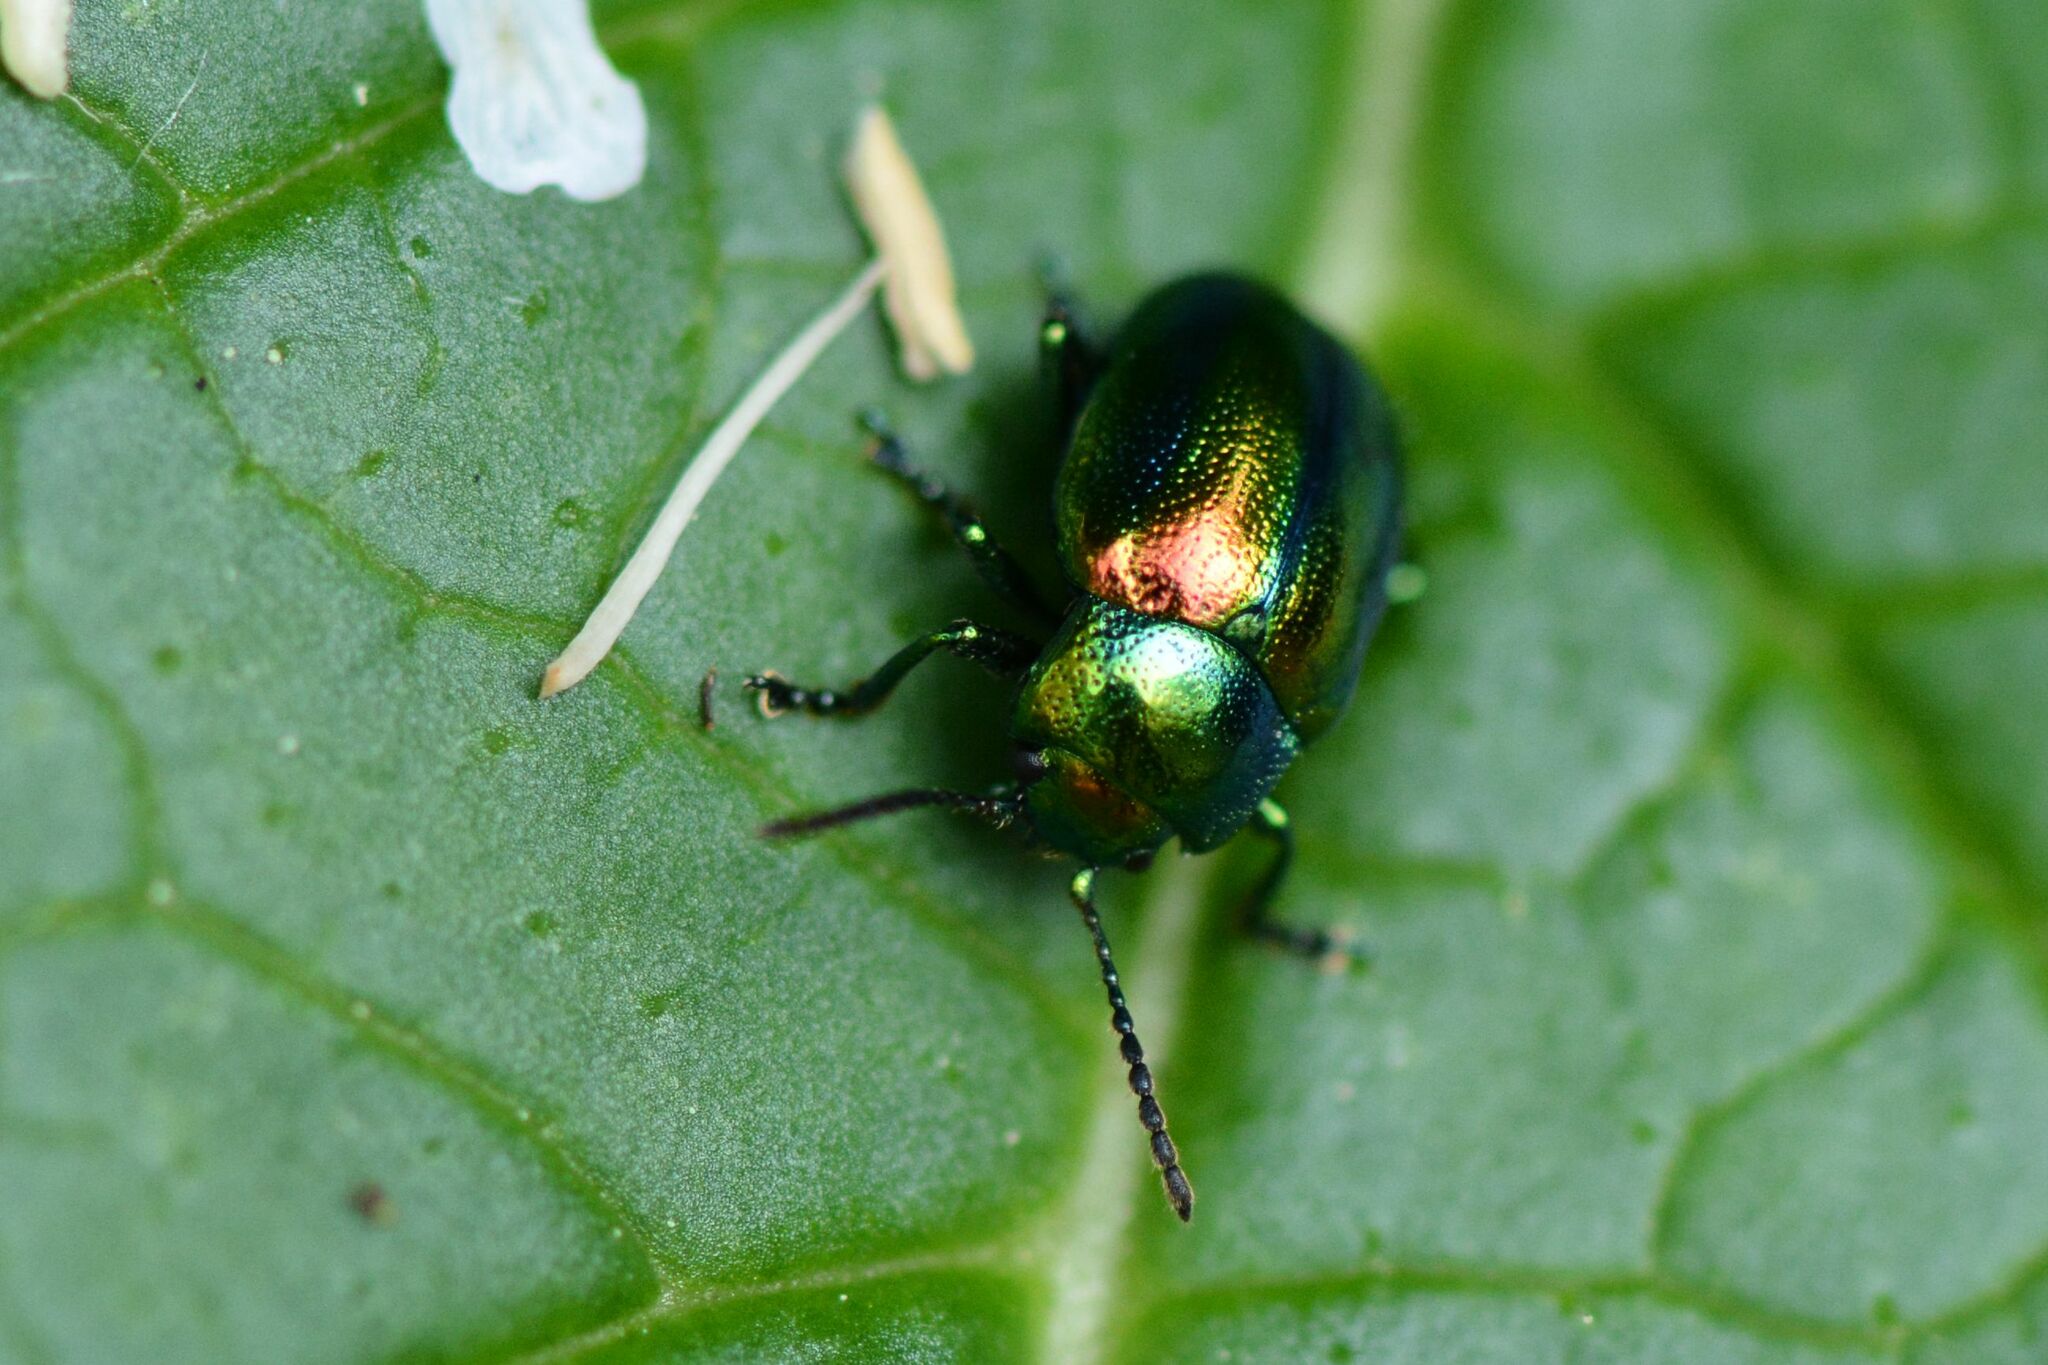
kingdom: Animalia
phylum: Arthropoda
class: Insecta
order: Coleoptera
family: Chrysomelidae
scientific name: Chrysomelidae
